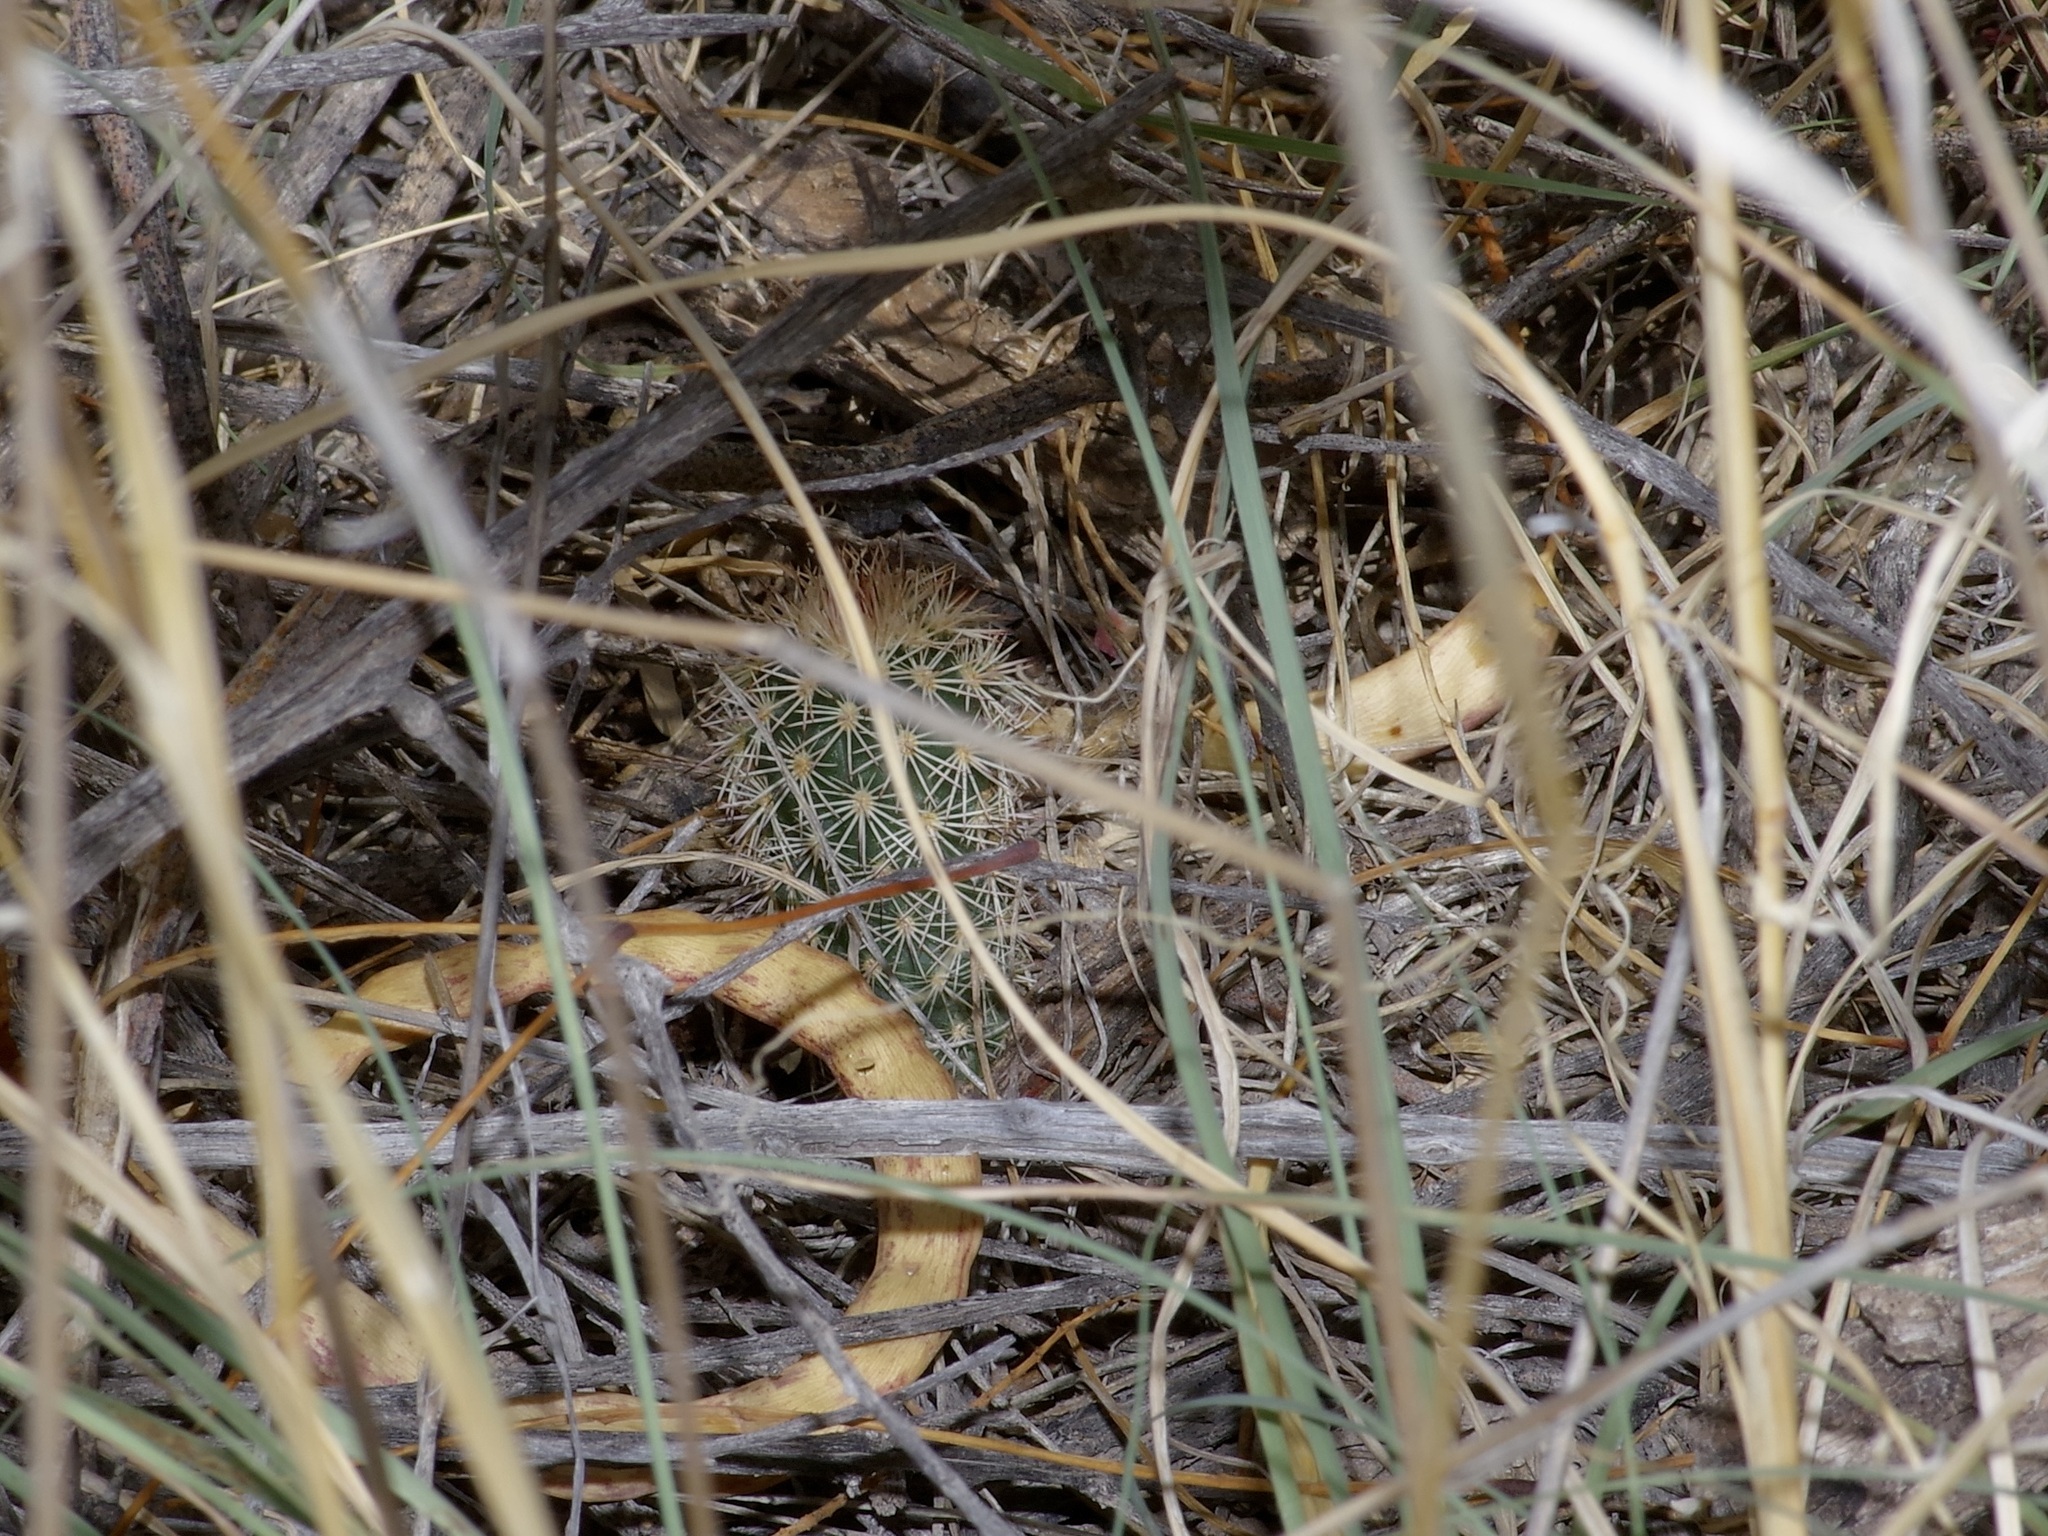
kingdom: Plantae
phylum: Tracheophyta
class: Magnoliopsida
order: Caryophyllales
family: Cactaceae
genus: Echinocereus
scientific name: Echinocereus dasyacanthus
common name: Spiny hedgehog cactus
